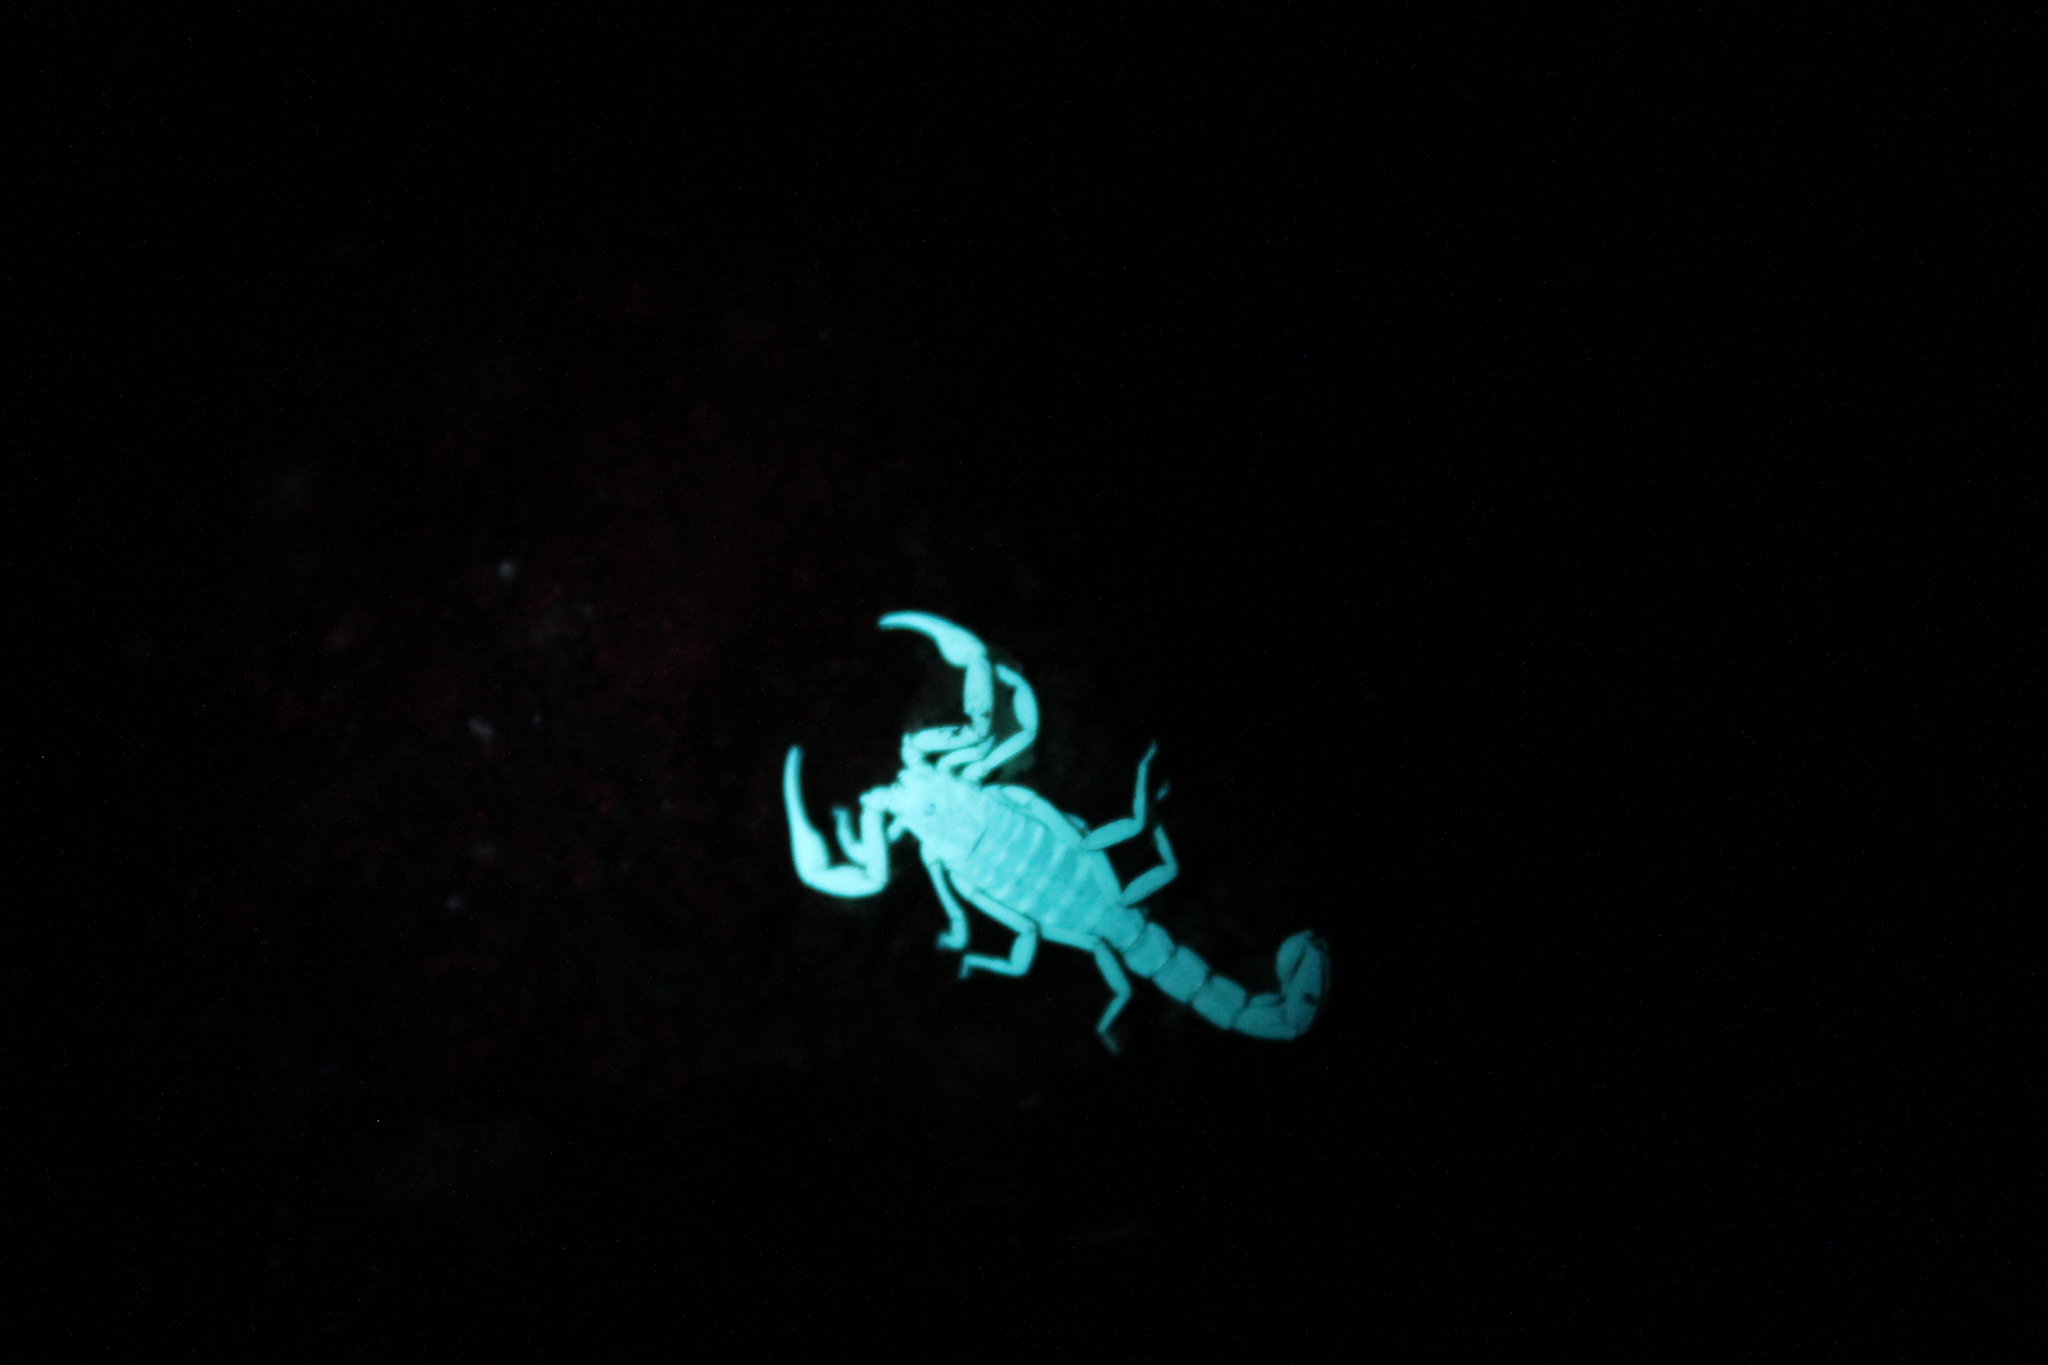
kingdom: Animalia
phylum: Arthropoda
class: Arachnida
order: Scorpiones
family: Vaejovidae
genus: Serradigitus
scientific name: Serradigitus gertschi
